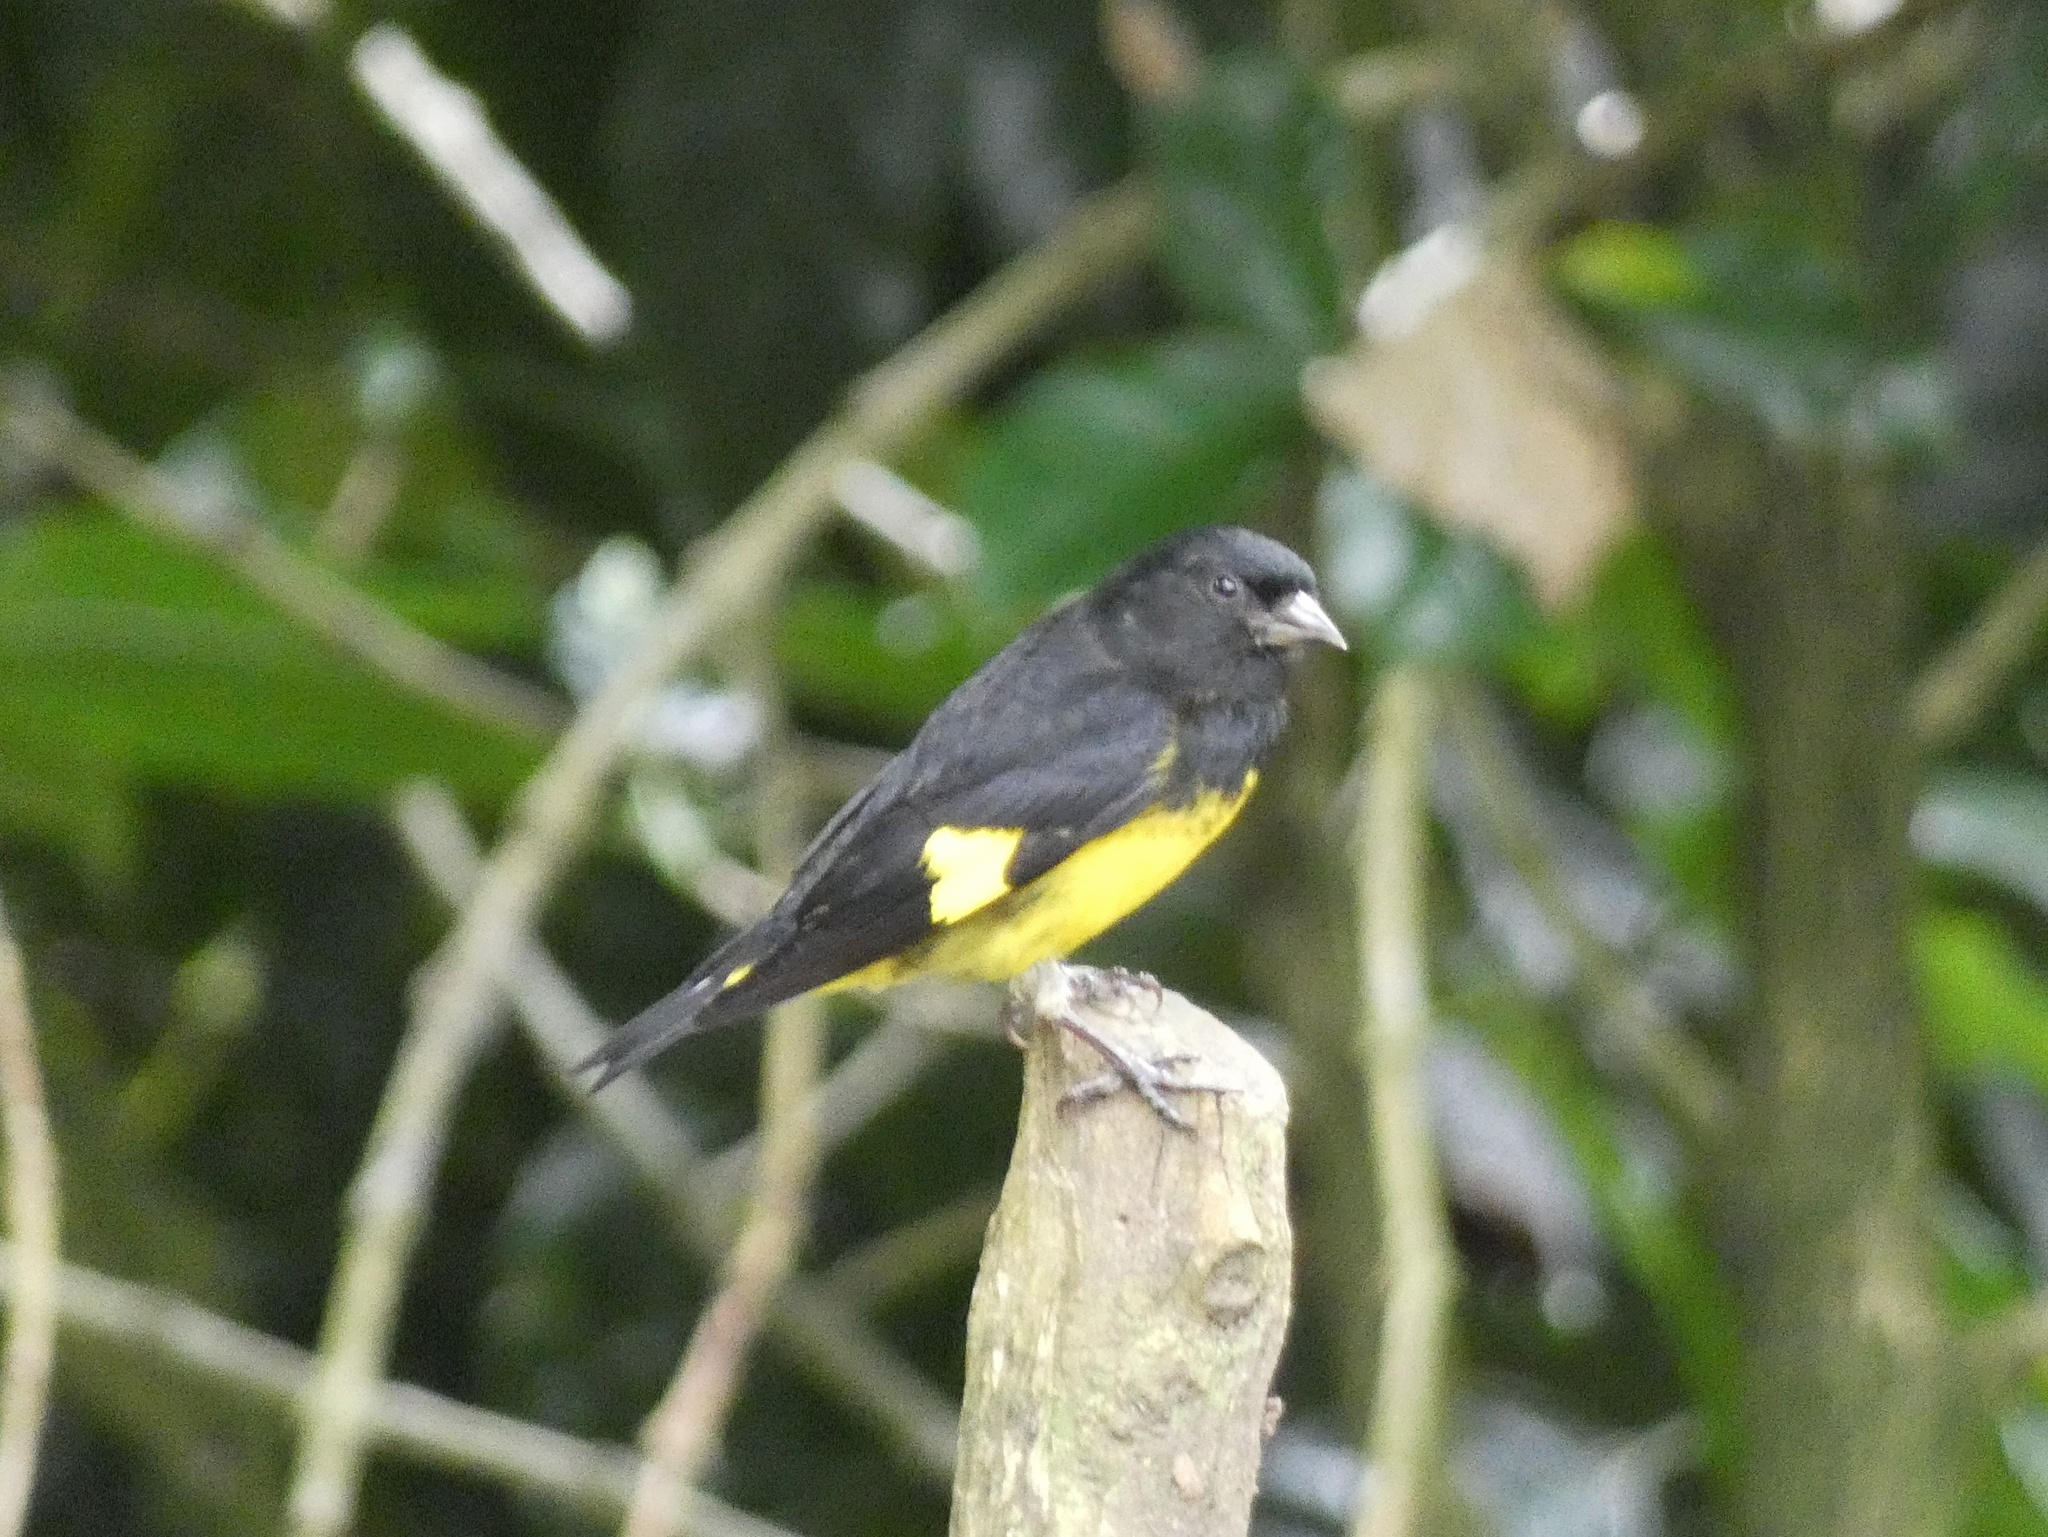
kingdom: Animalia
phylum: Chordata
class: Aves
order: Passeriformes
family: Fringillidae
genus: Spinus
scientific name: Spinus xanthogastrus
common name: Yellow-bellied siskin
